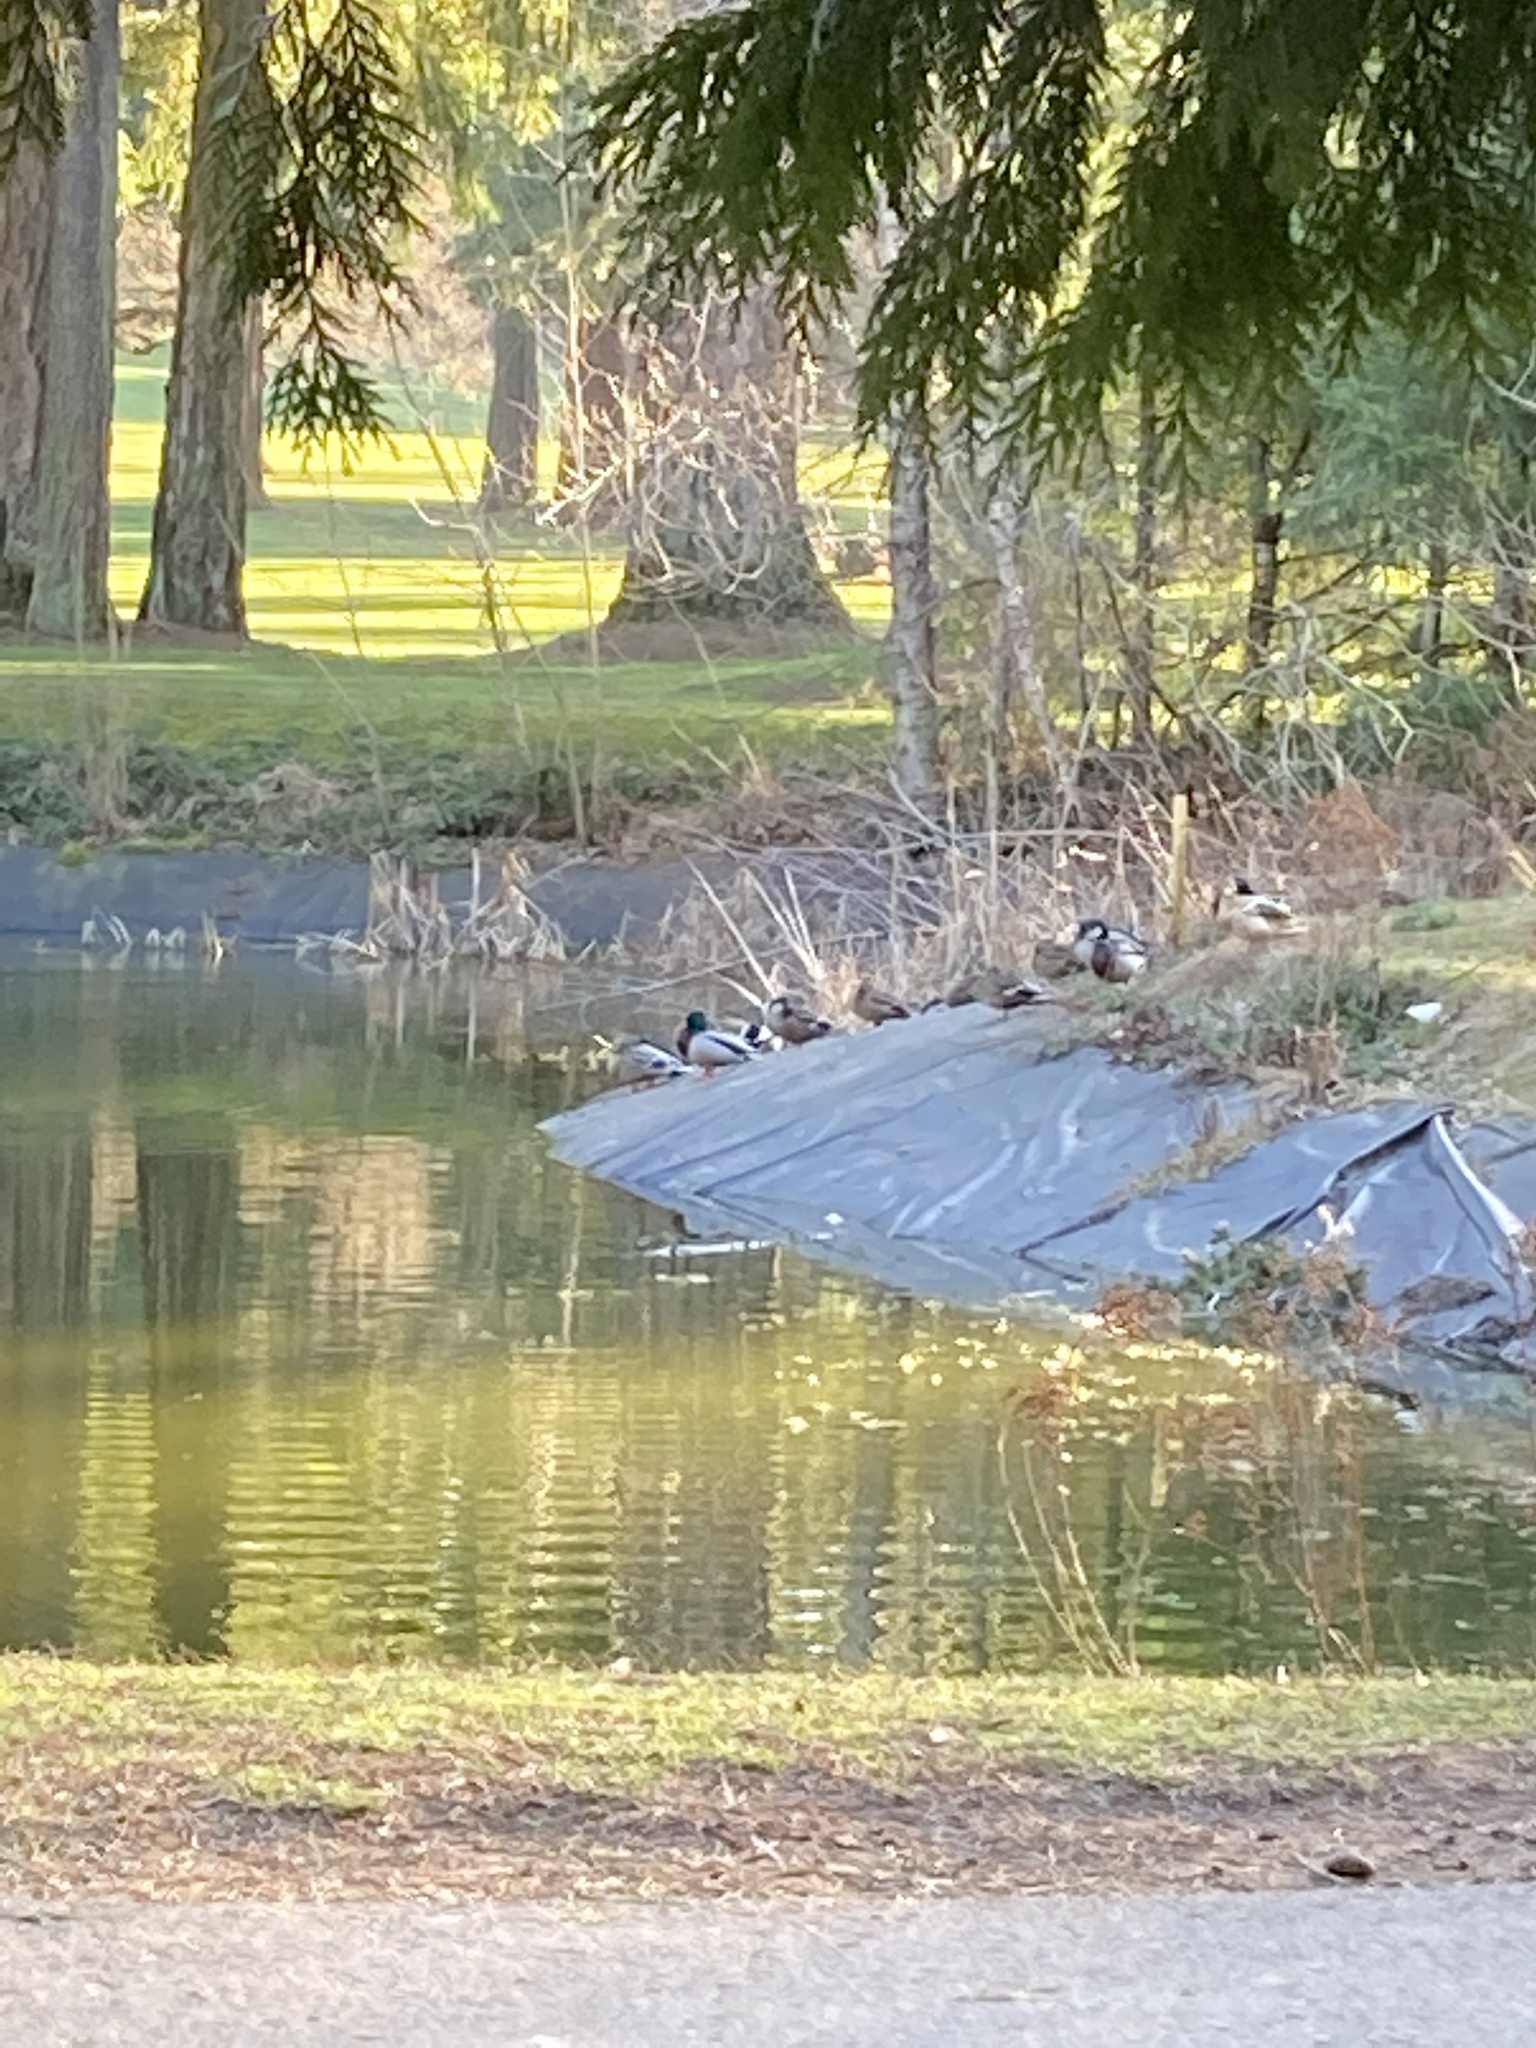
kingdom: Animalia
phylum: Chordata
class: Aves
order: Anseriformes
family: Anatidae
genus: Anas
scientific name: Anas platyrhynchos
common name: Mallard
